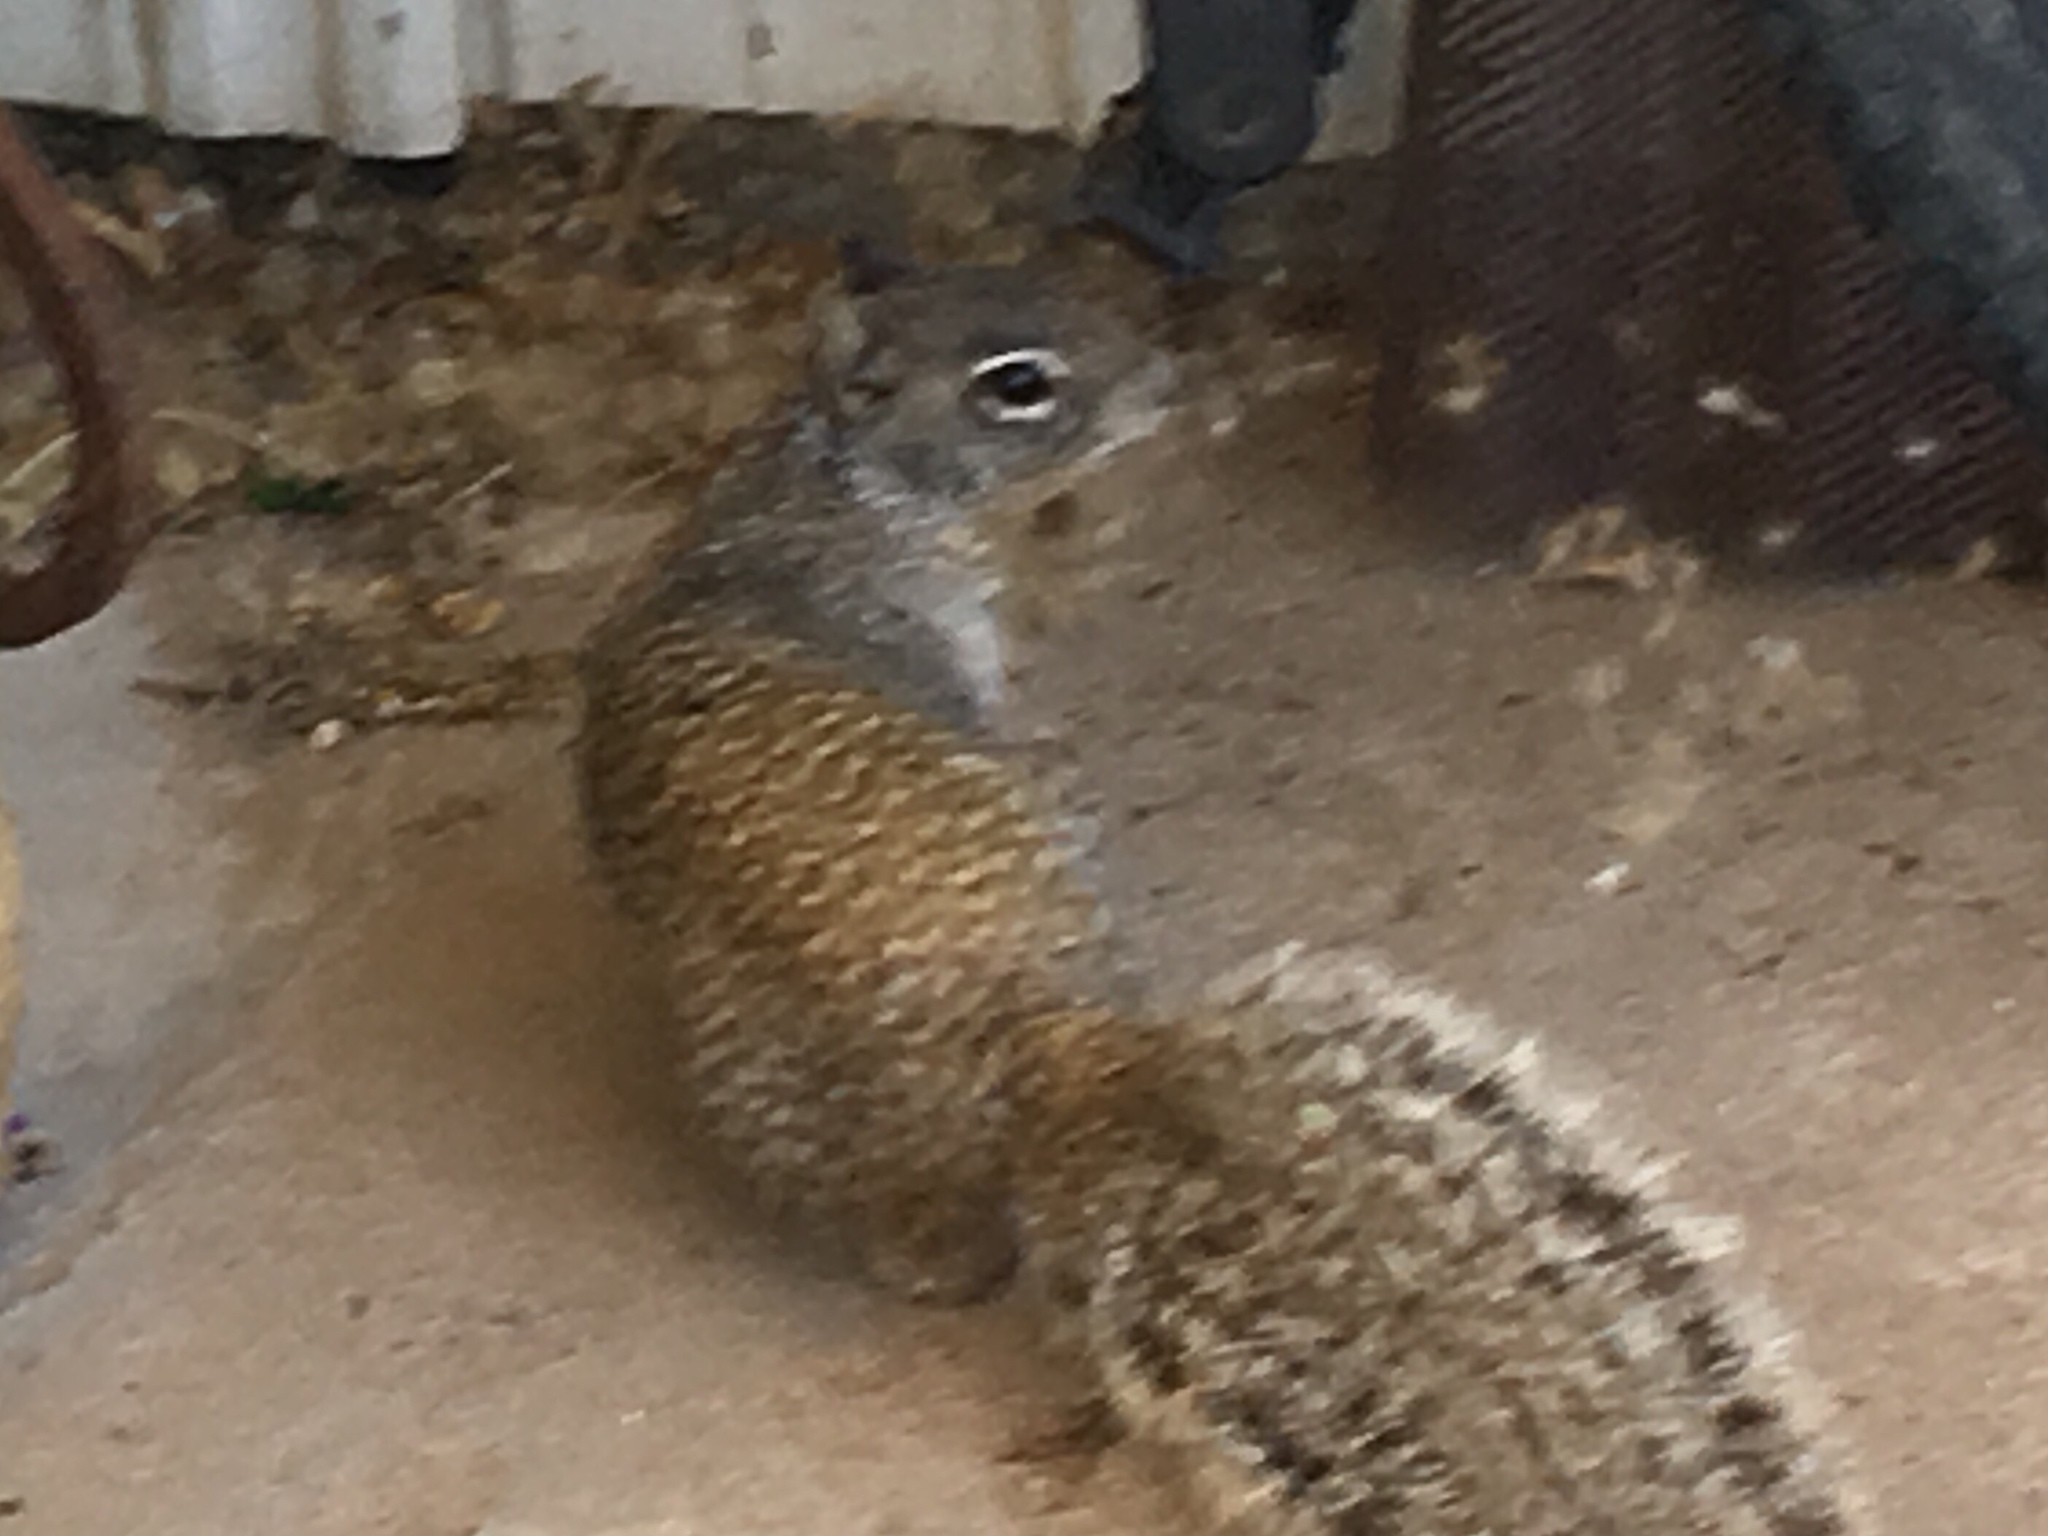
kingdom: Animalia
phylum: Chordata
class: Mammalia
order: Rodentia
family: Sciuridae
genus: Otospermophilus
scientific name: Otospermophilus variegatus
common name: Rock squirrel
